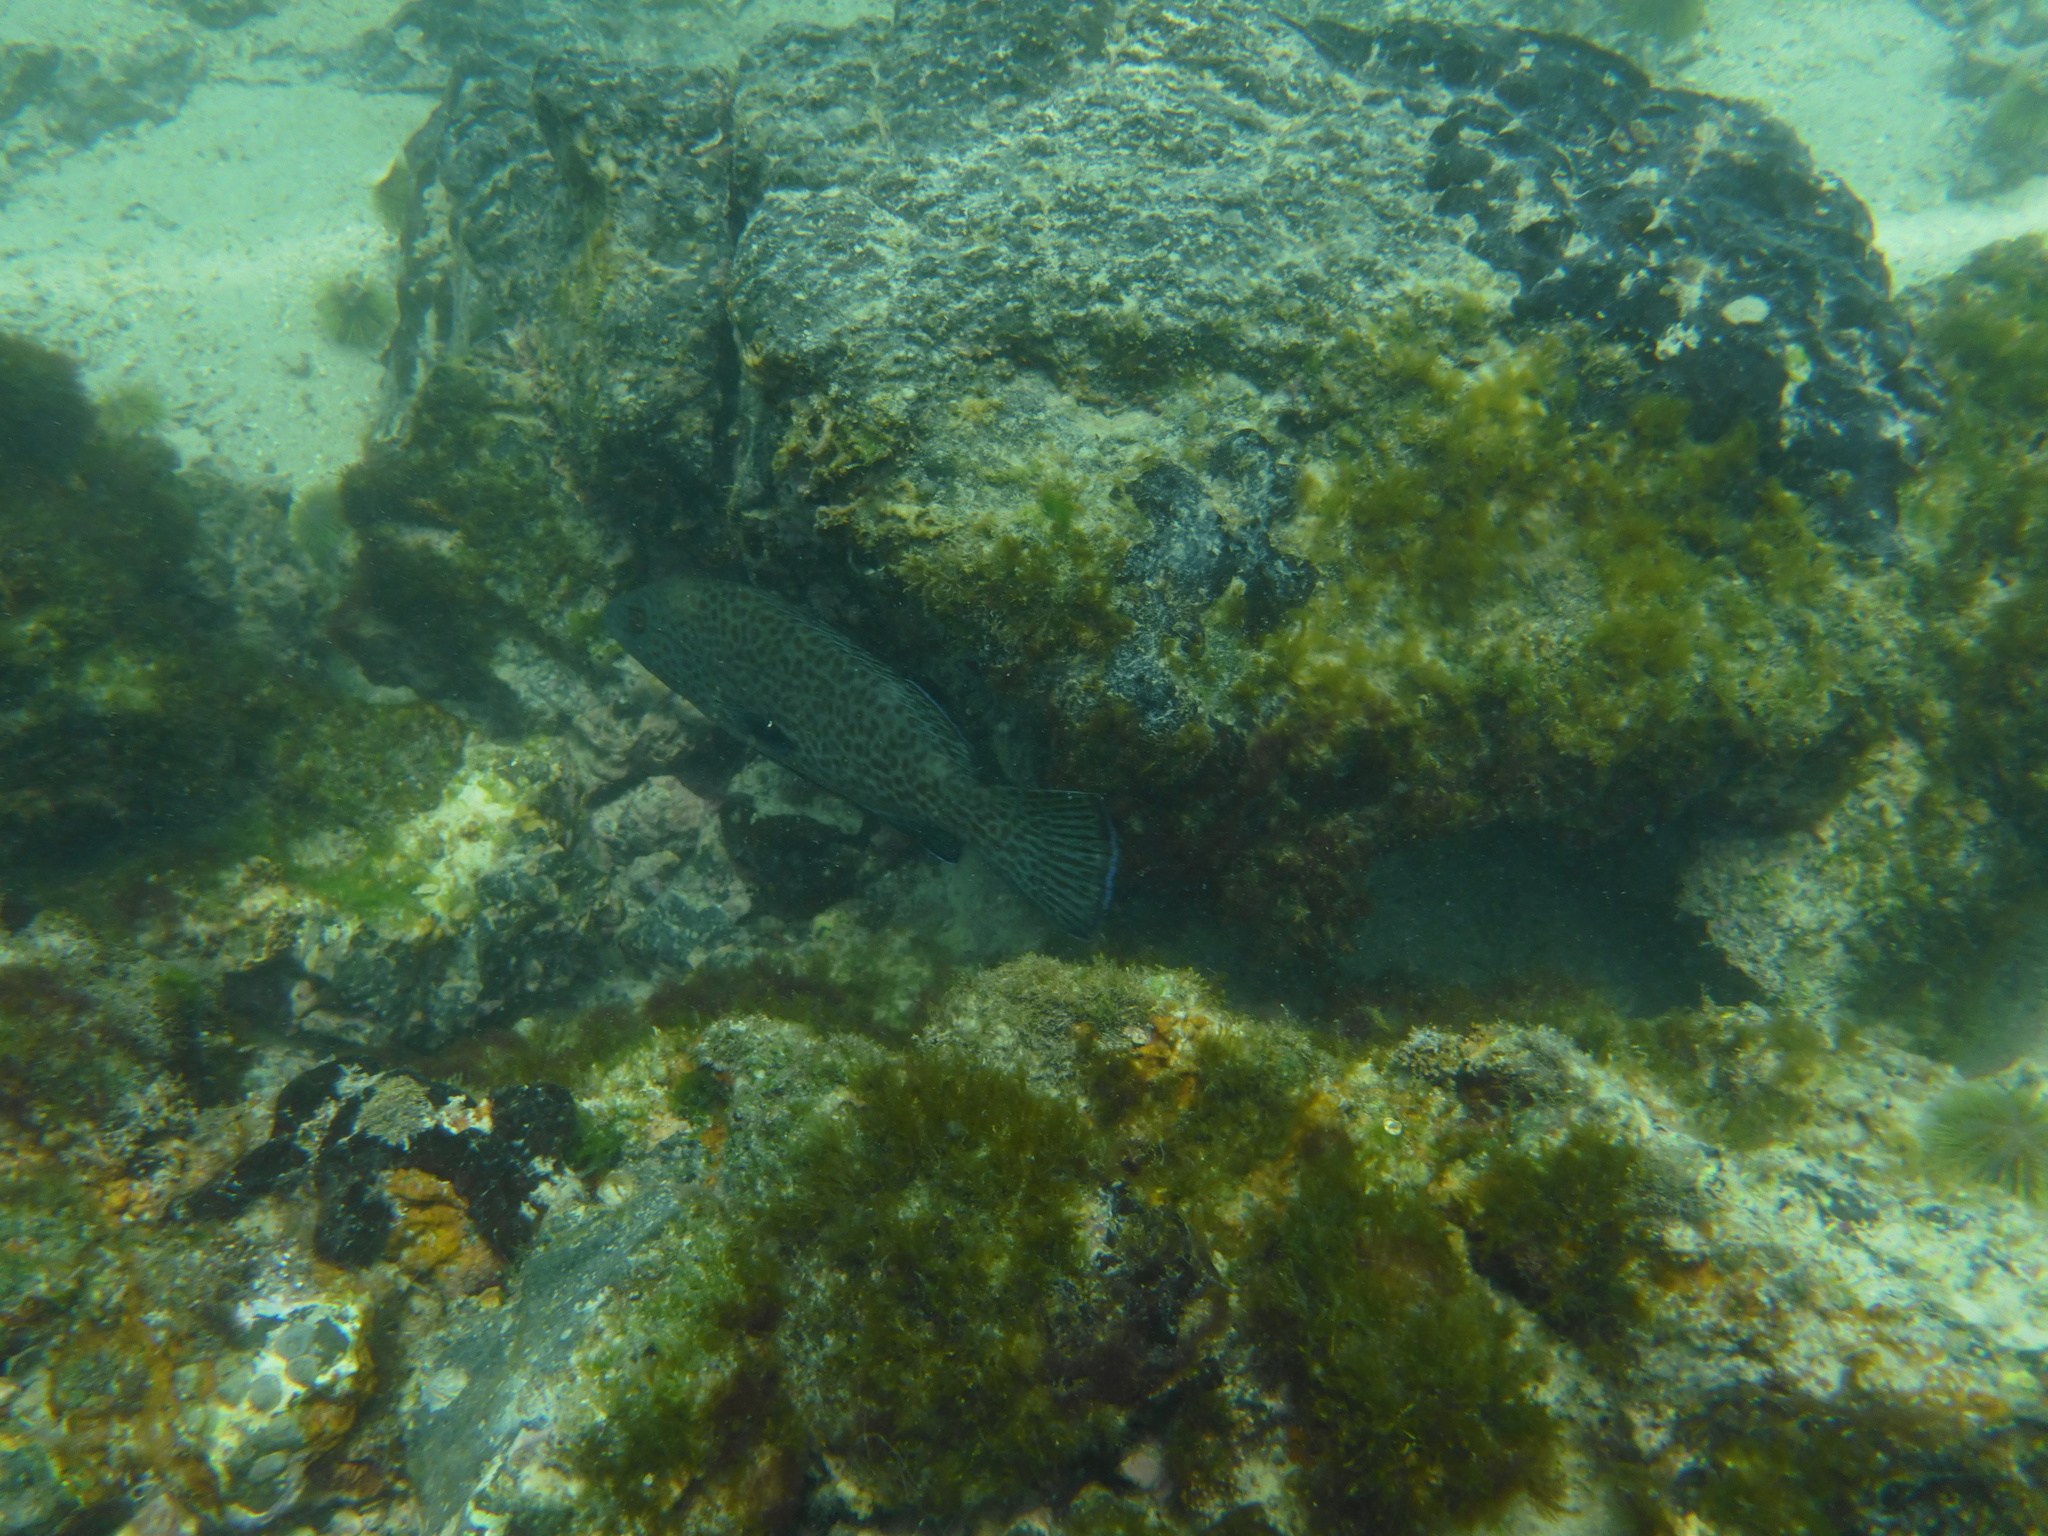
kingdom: Animalia
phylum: Chordata
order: Perciformes
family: Serranidae
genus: Dermatolepis
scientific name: Dermatolepis dermatolepis
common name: Leather bass
